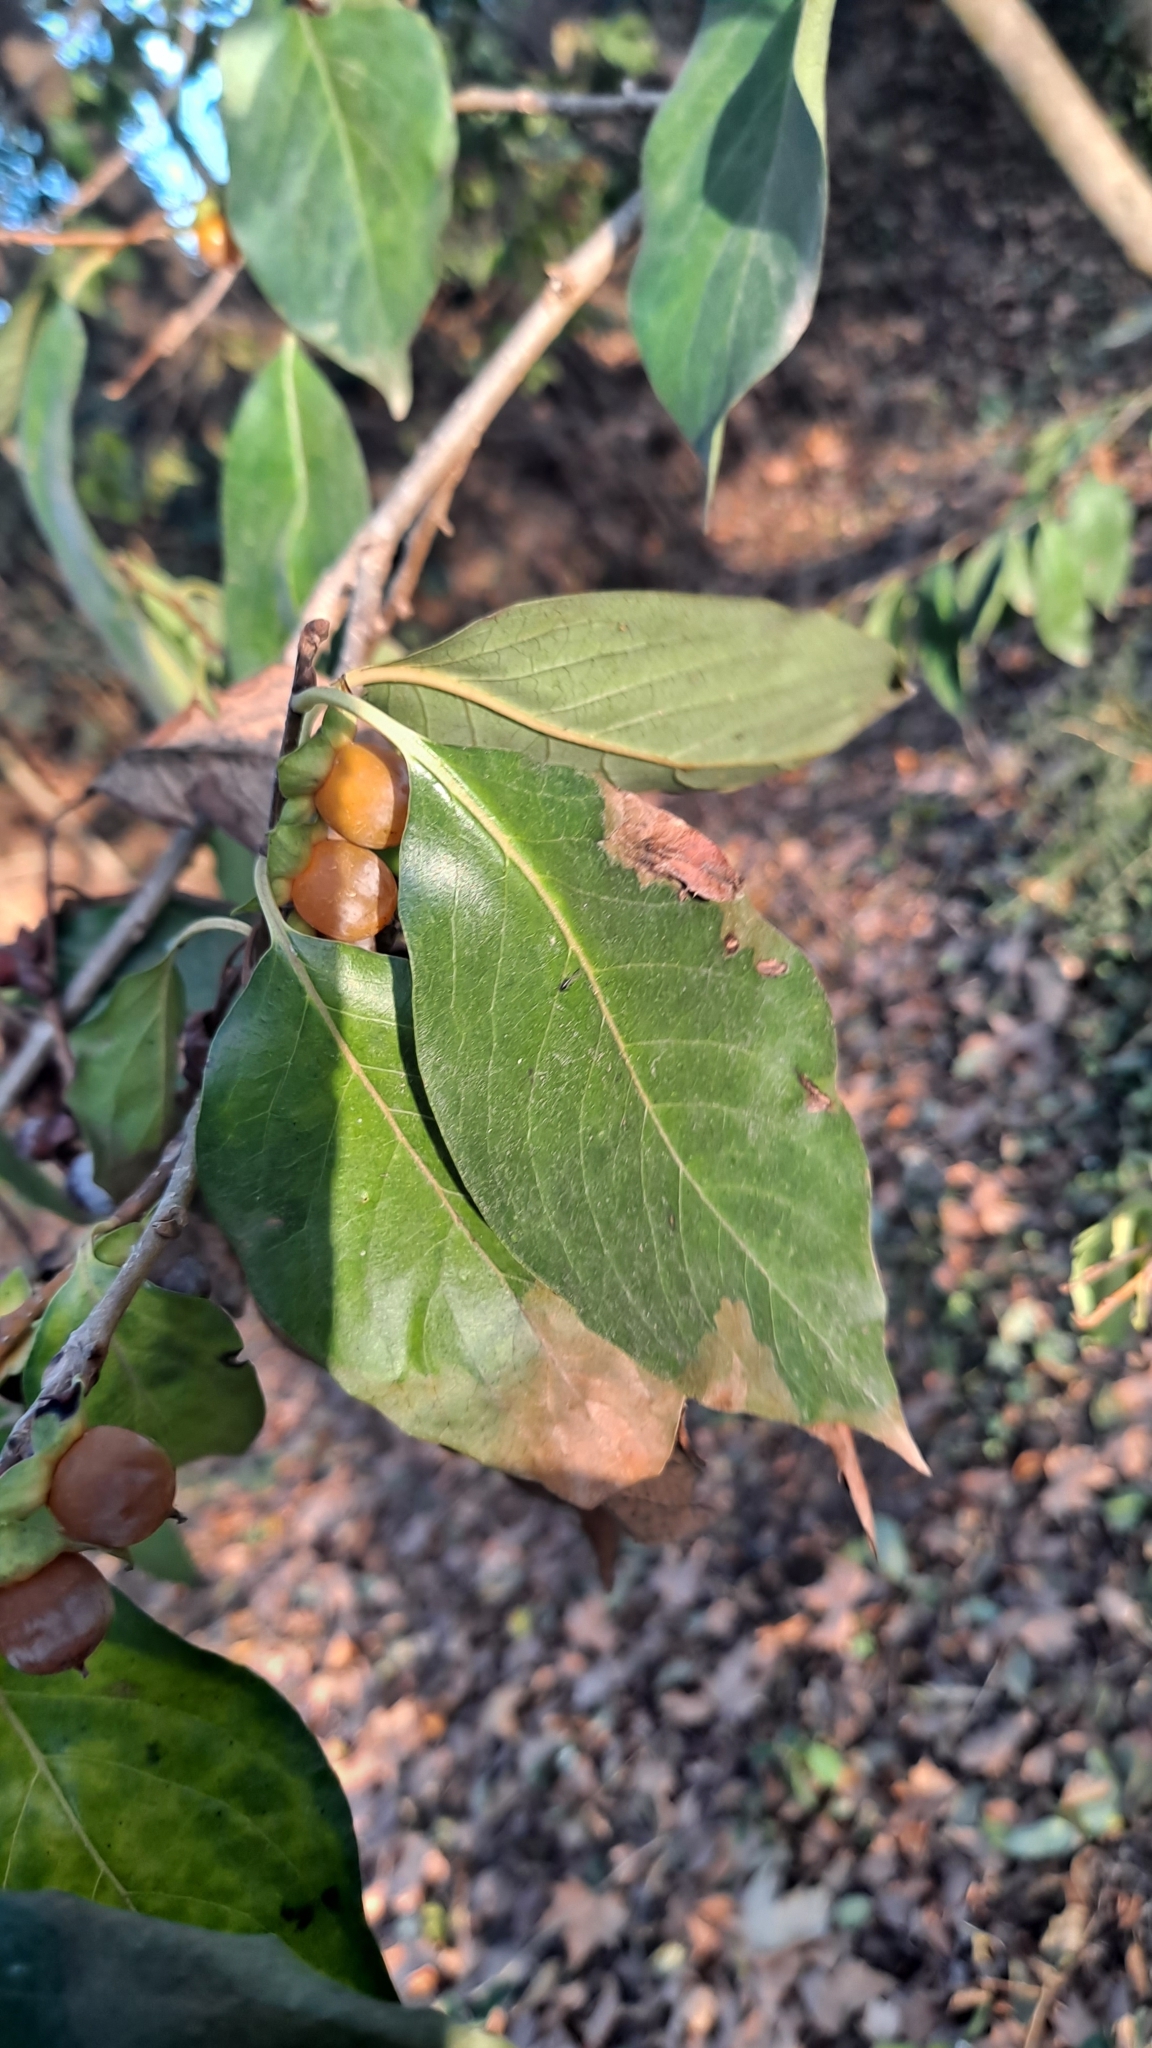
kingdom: Plantae
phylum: Tracheophyta
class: Magnoliopsida
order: Ericales
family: Ebenaceae
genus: Diospyros
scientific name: Diospyros lotus
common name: Date-plum
